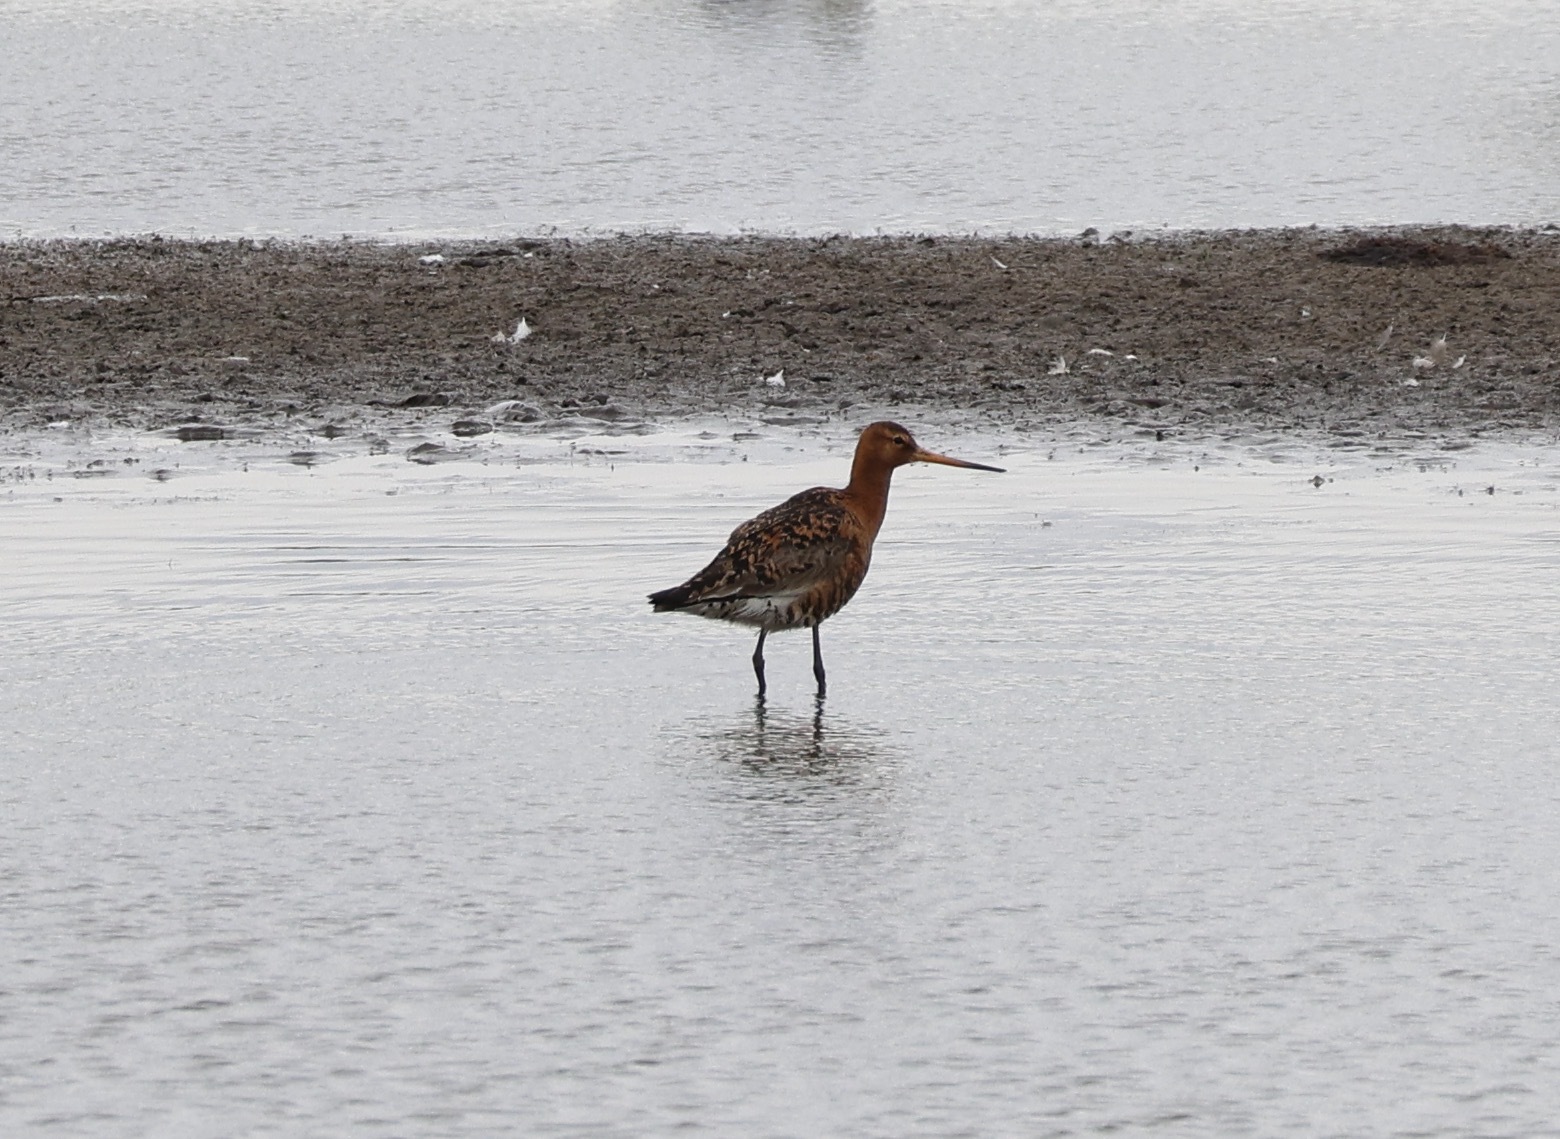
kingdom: Animalia
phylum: Chordata
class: Aves
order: Charadriiformes
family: Scolopacidae
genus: Limosa
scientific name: Limosa limosa
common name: Black-tailed godwit
